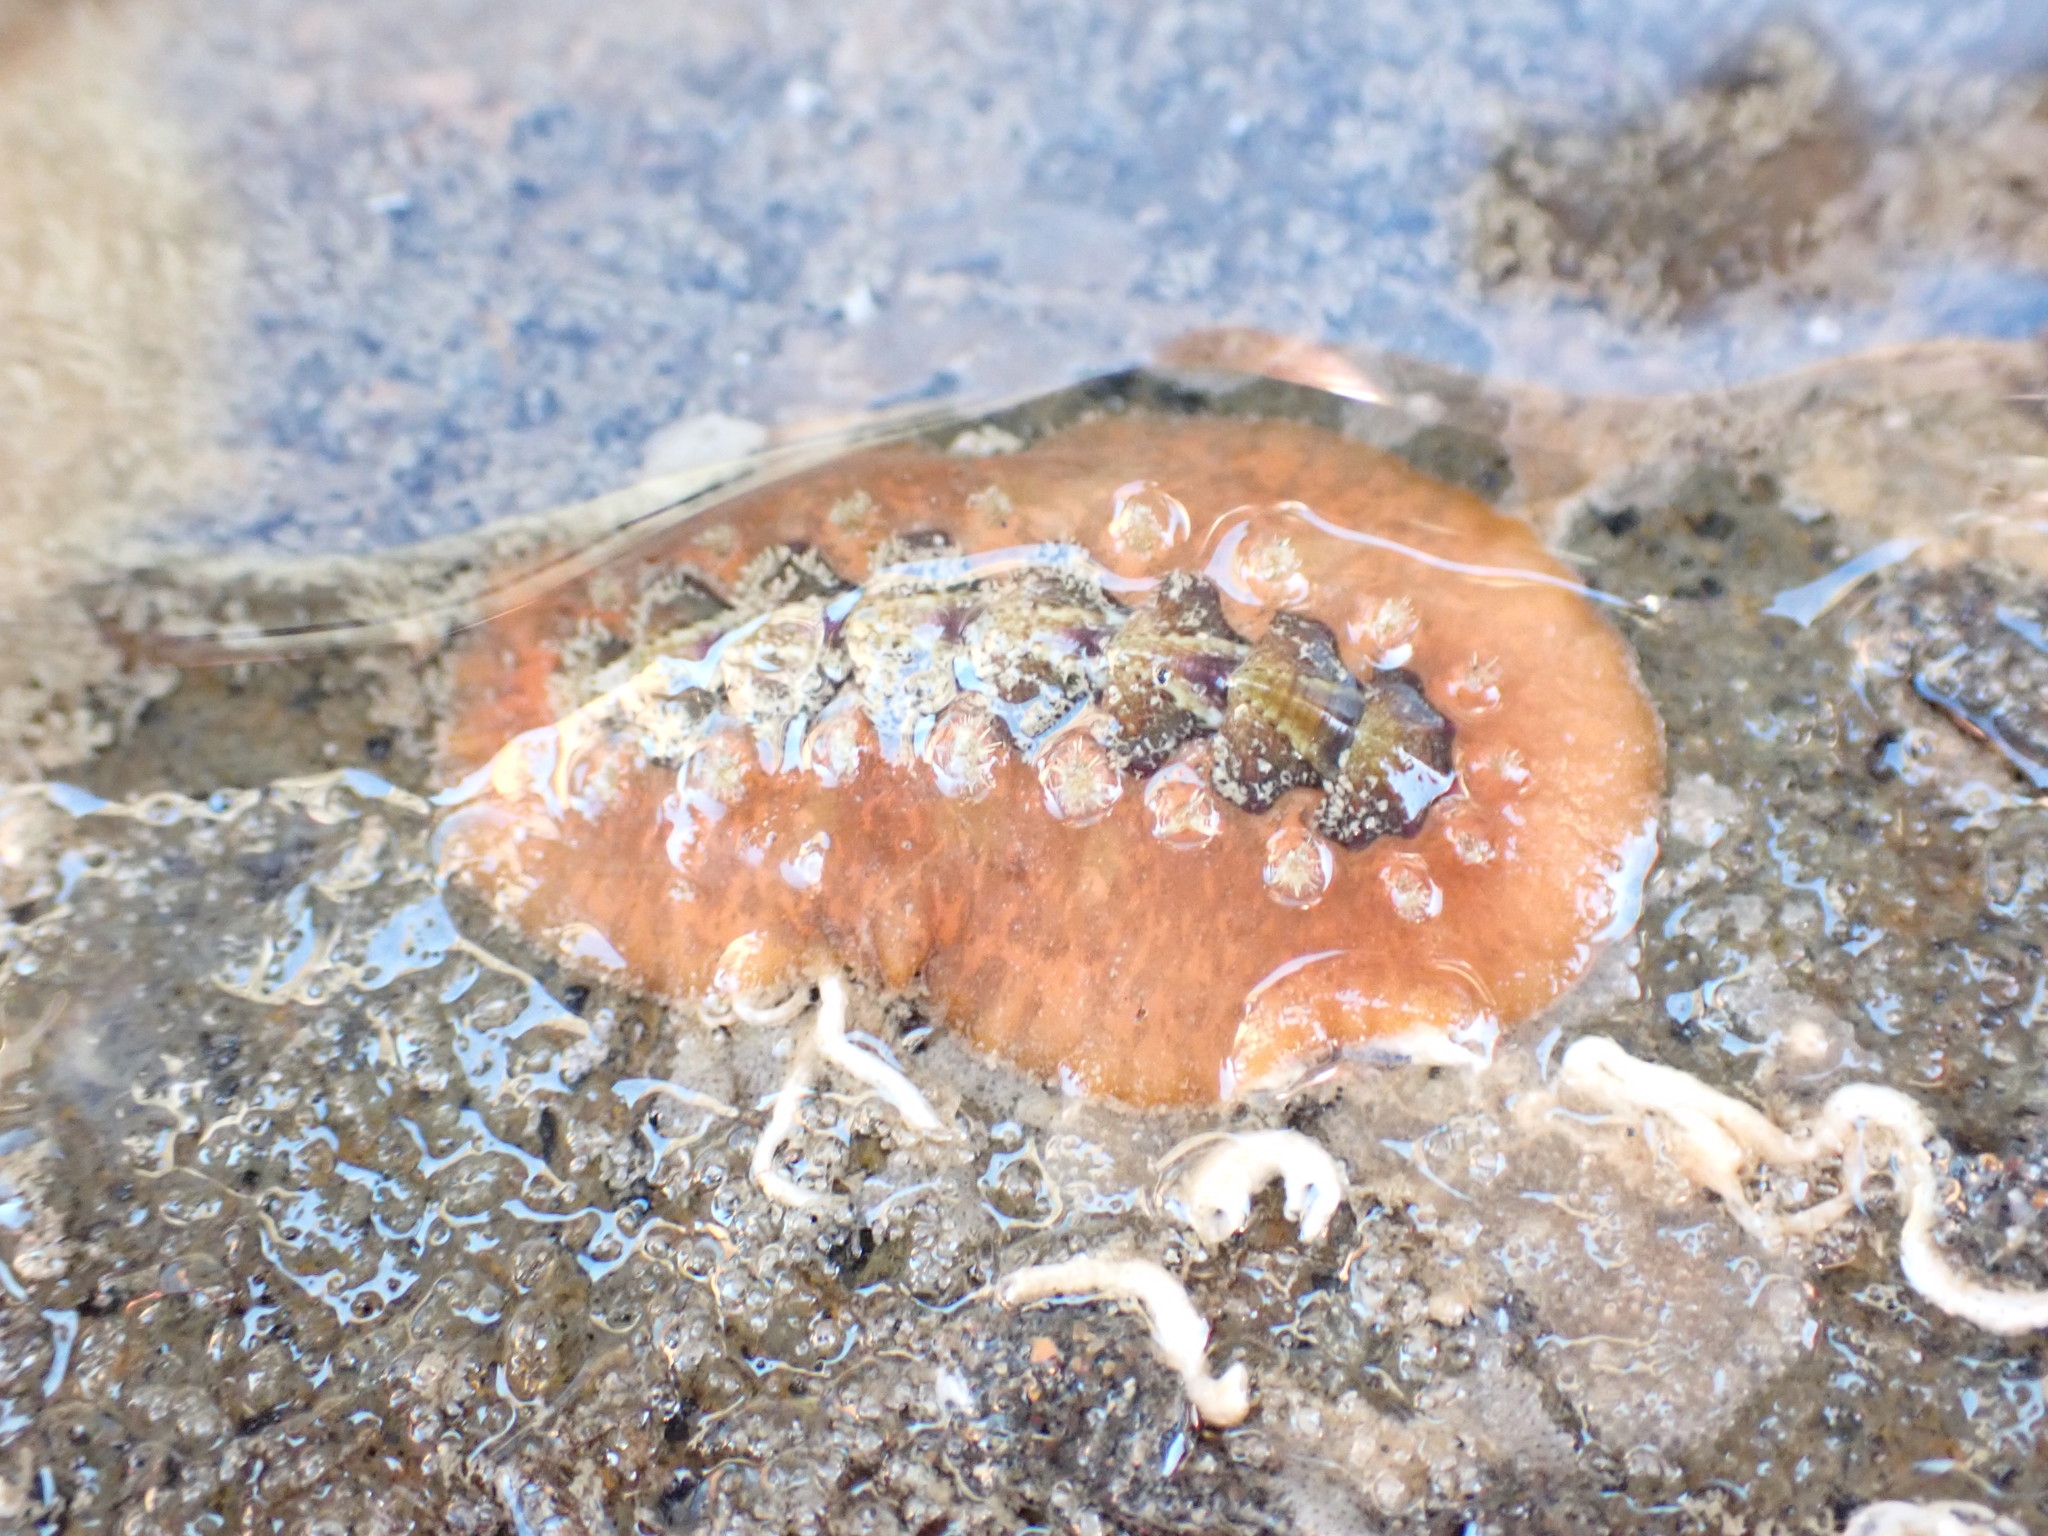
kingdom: Animalia
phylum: Mollusca
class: Polyplacophora
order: Chitonida
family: Acanthochitonidae
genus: Notoplax
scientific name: Notoplax violacea
